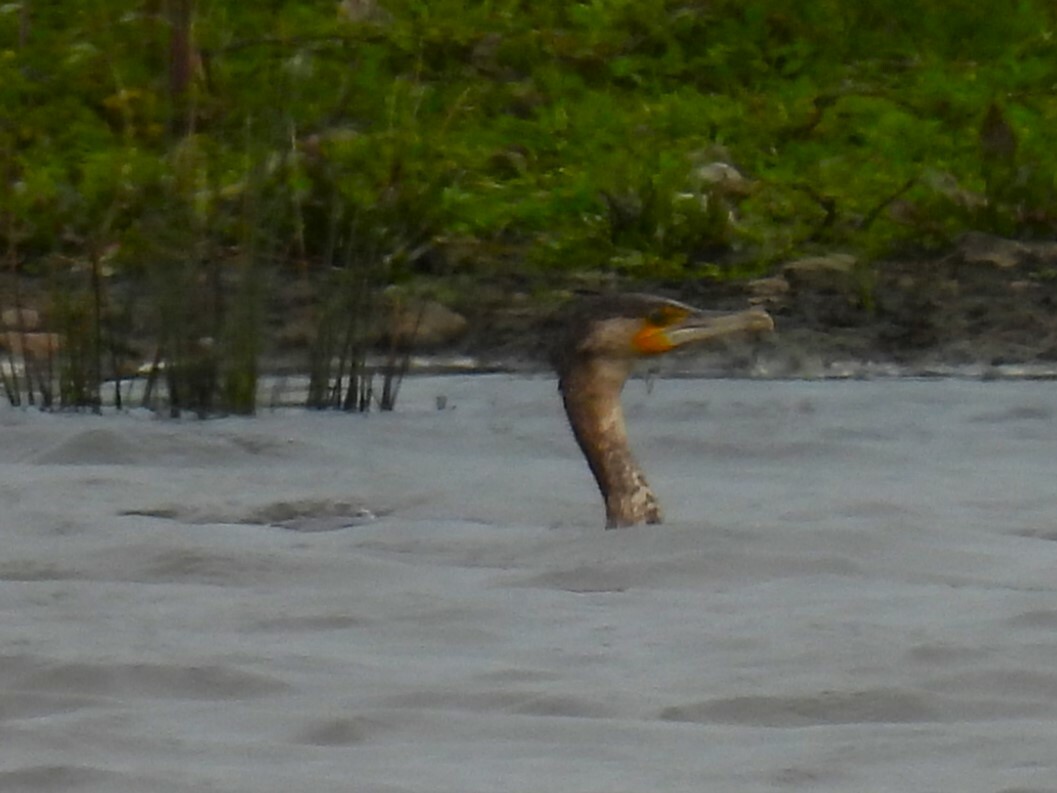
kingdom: Animalia
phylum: Chordata
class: Aves
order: Suliformes
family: Phalacrocoracidae
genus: Phalacrocorax
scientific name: Phalacrocorax carbo
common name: Great cormorant
